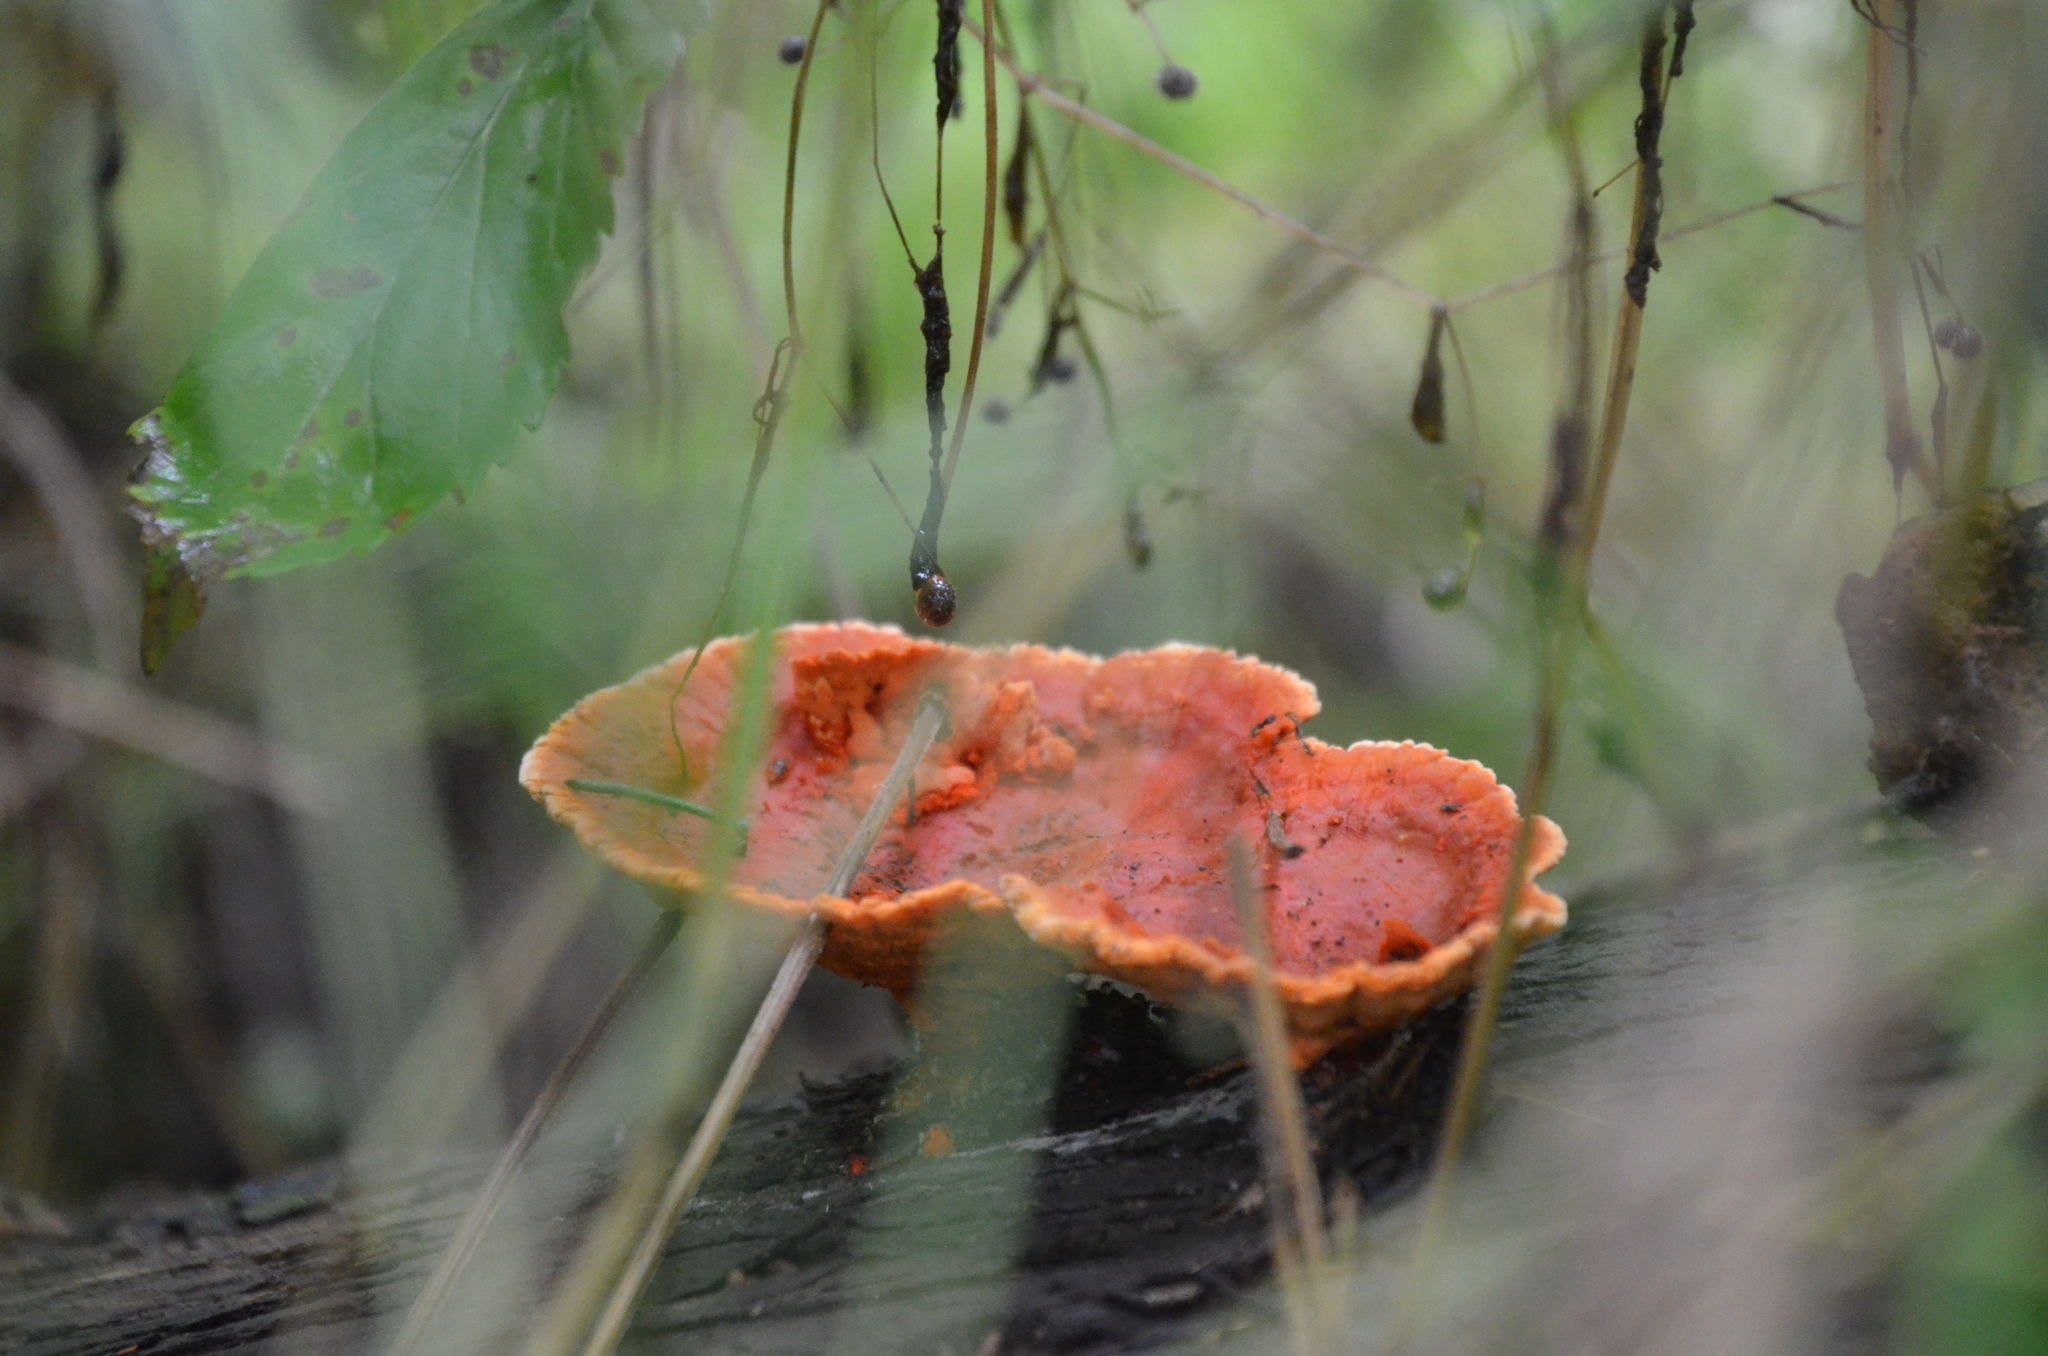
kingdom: Fungi
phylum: Basidiomycota
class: Agaricomycetes
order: Polyporales
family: Polyporaceae
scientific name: Polyporaceae
